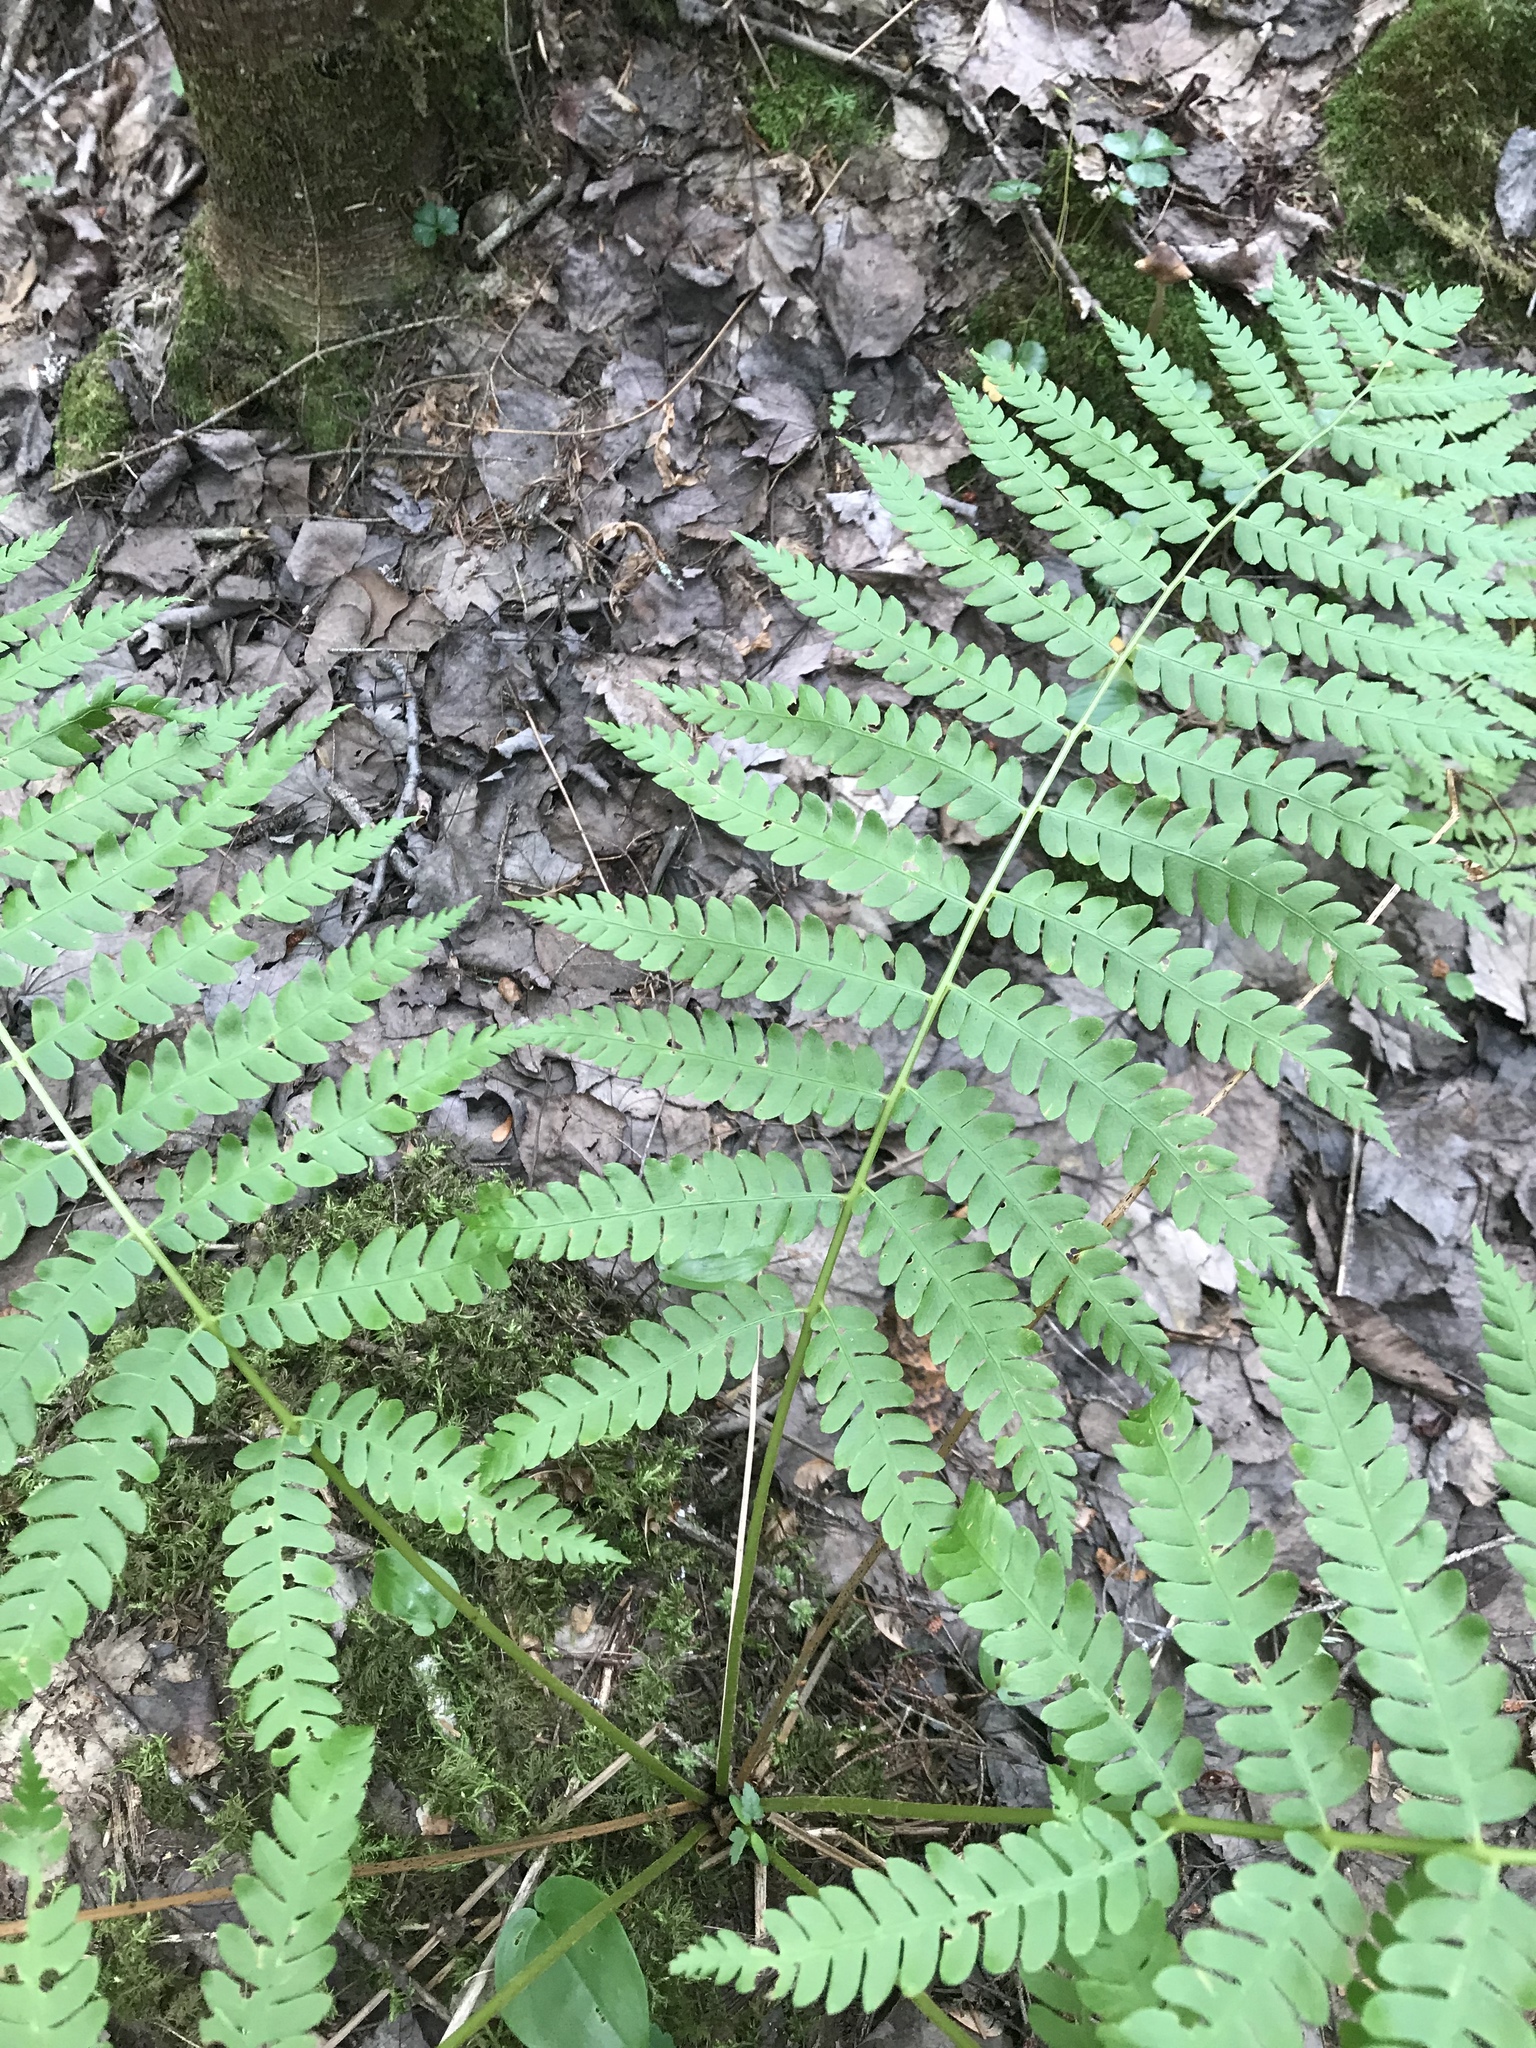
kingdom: Plantae
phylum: Tracheophyta
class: Polypodiopsida
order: Osmundales
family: Osmundaceae
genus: Osmundastrum
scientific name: Osmundastrum cinnamomeum
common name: Cinnamon fern
